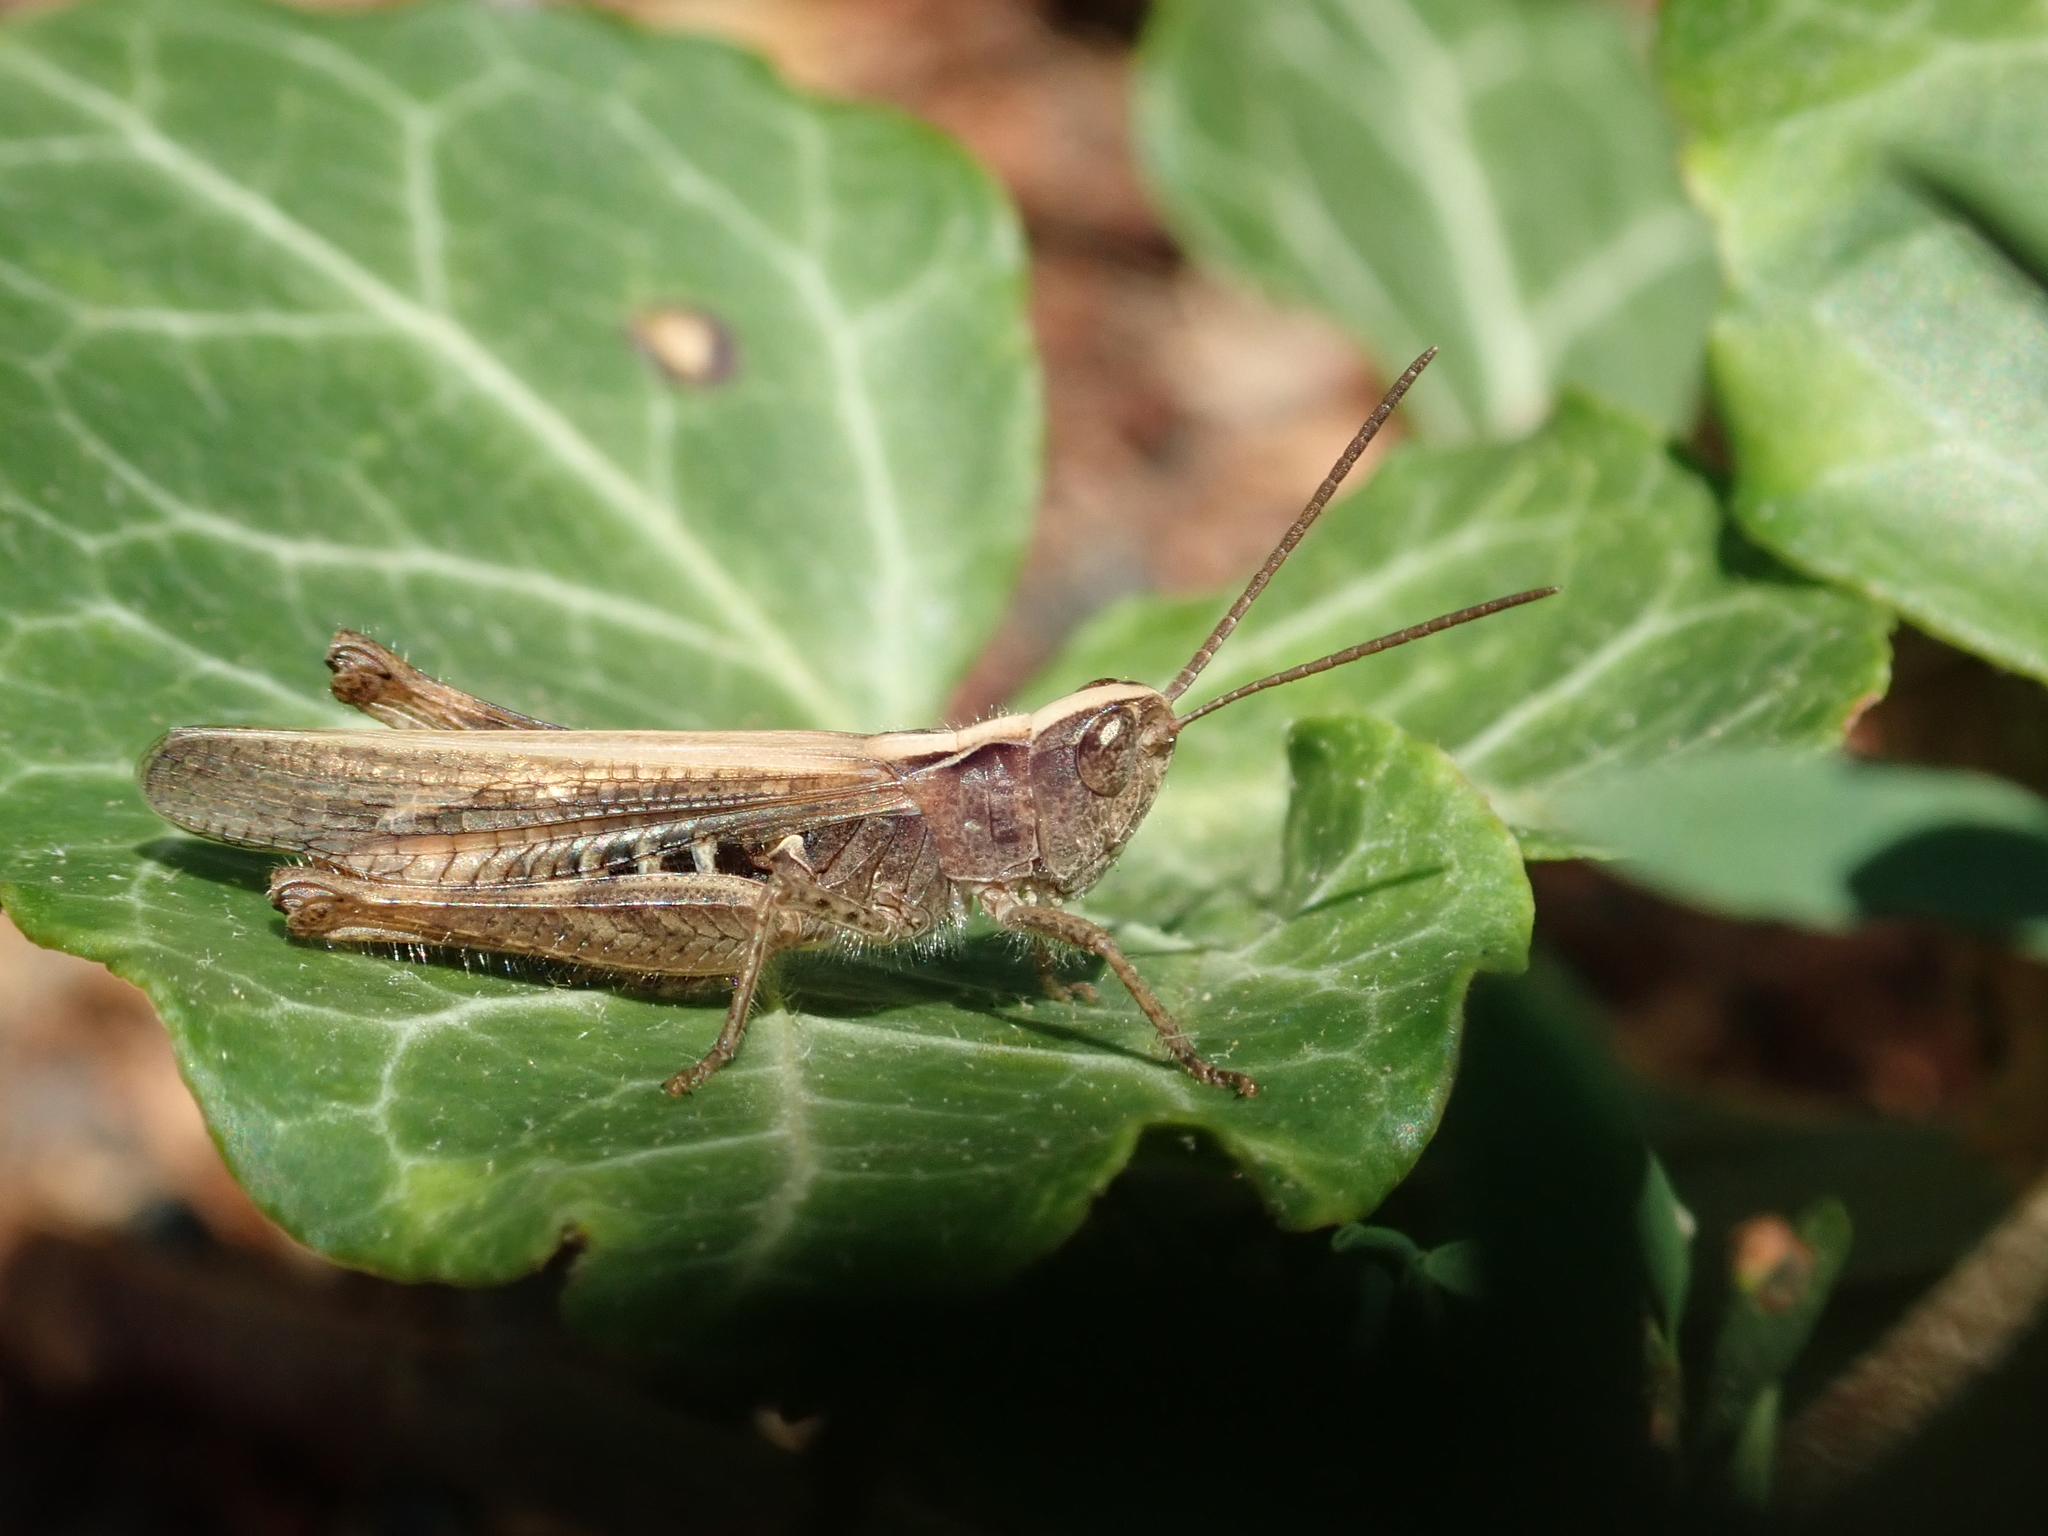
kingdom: Animalia
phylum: Arthropoda
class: Insecta
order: Orthoptera
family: Acrididae
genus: Chorthippus
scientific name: Chorthippus biguttulus
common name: Bow-winged grasshopper
